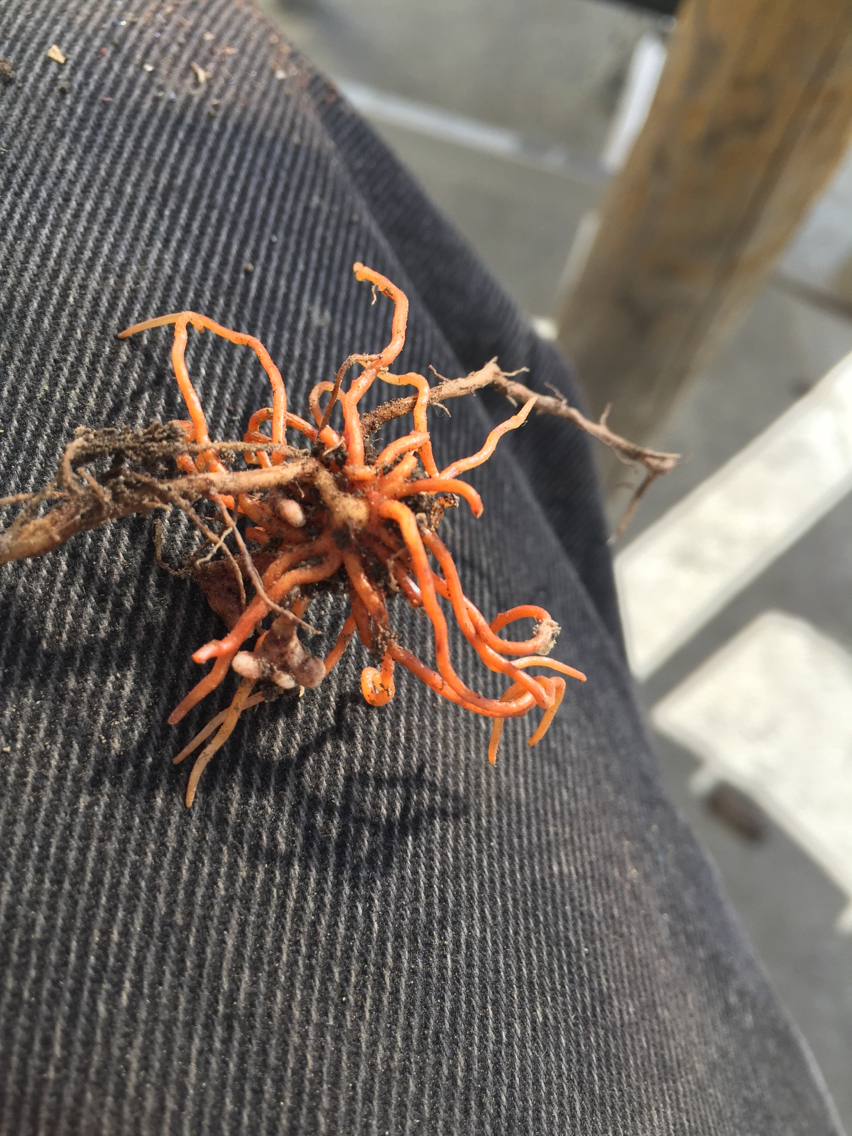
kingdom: Plantae
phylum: Tracheophyta
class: Magnoliopsida
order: Lamiales
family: Orobanchaceae
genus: Orobanche
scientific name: Orobanche minor
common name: Common broomrape
